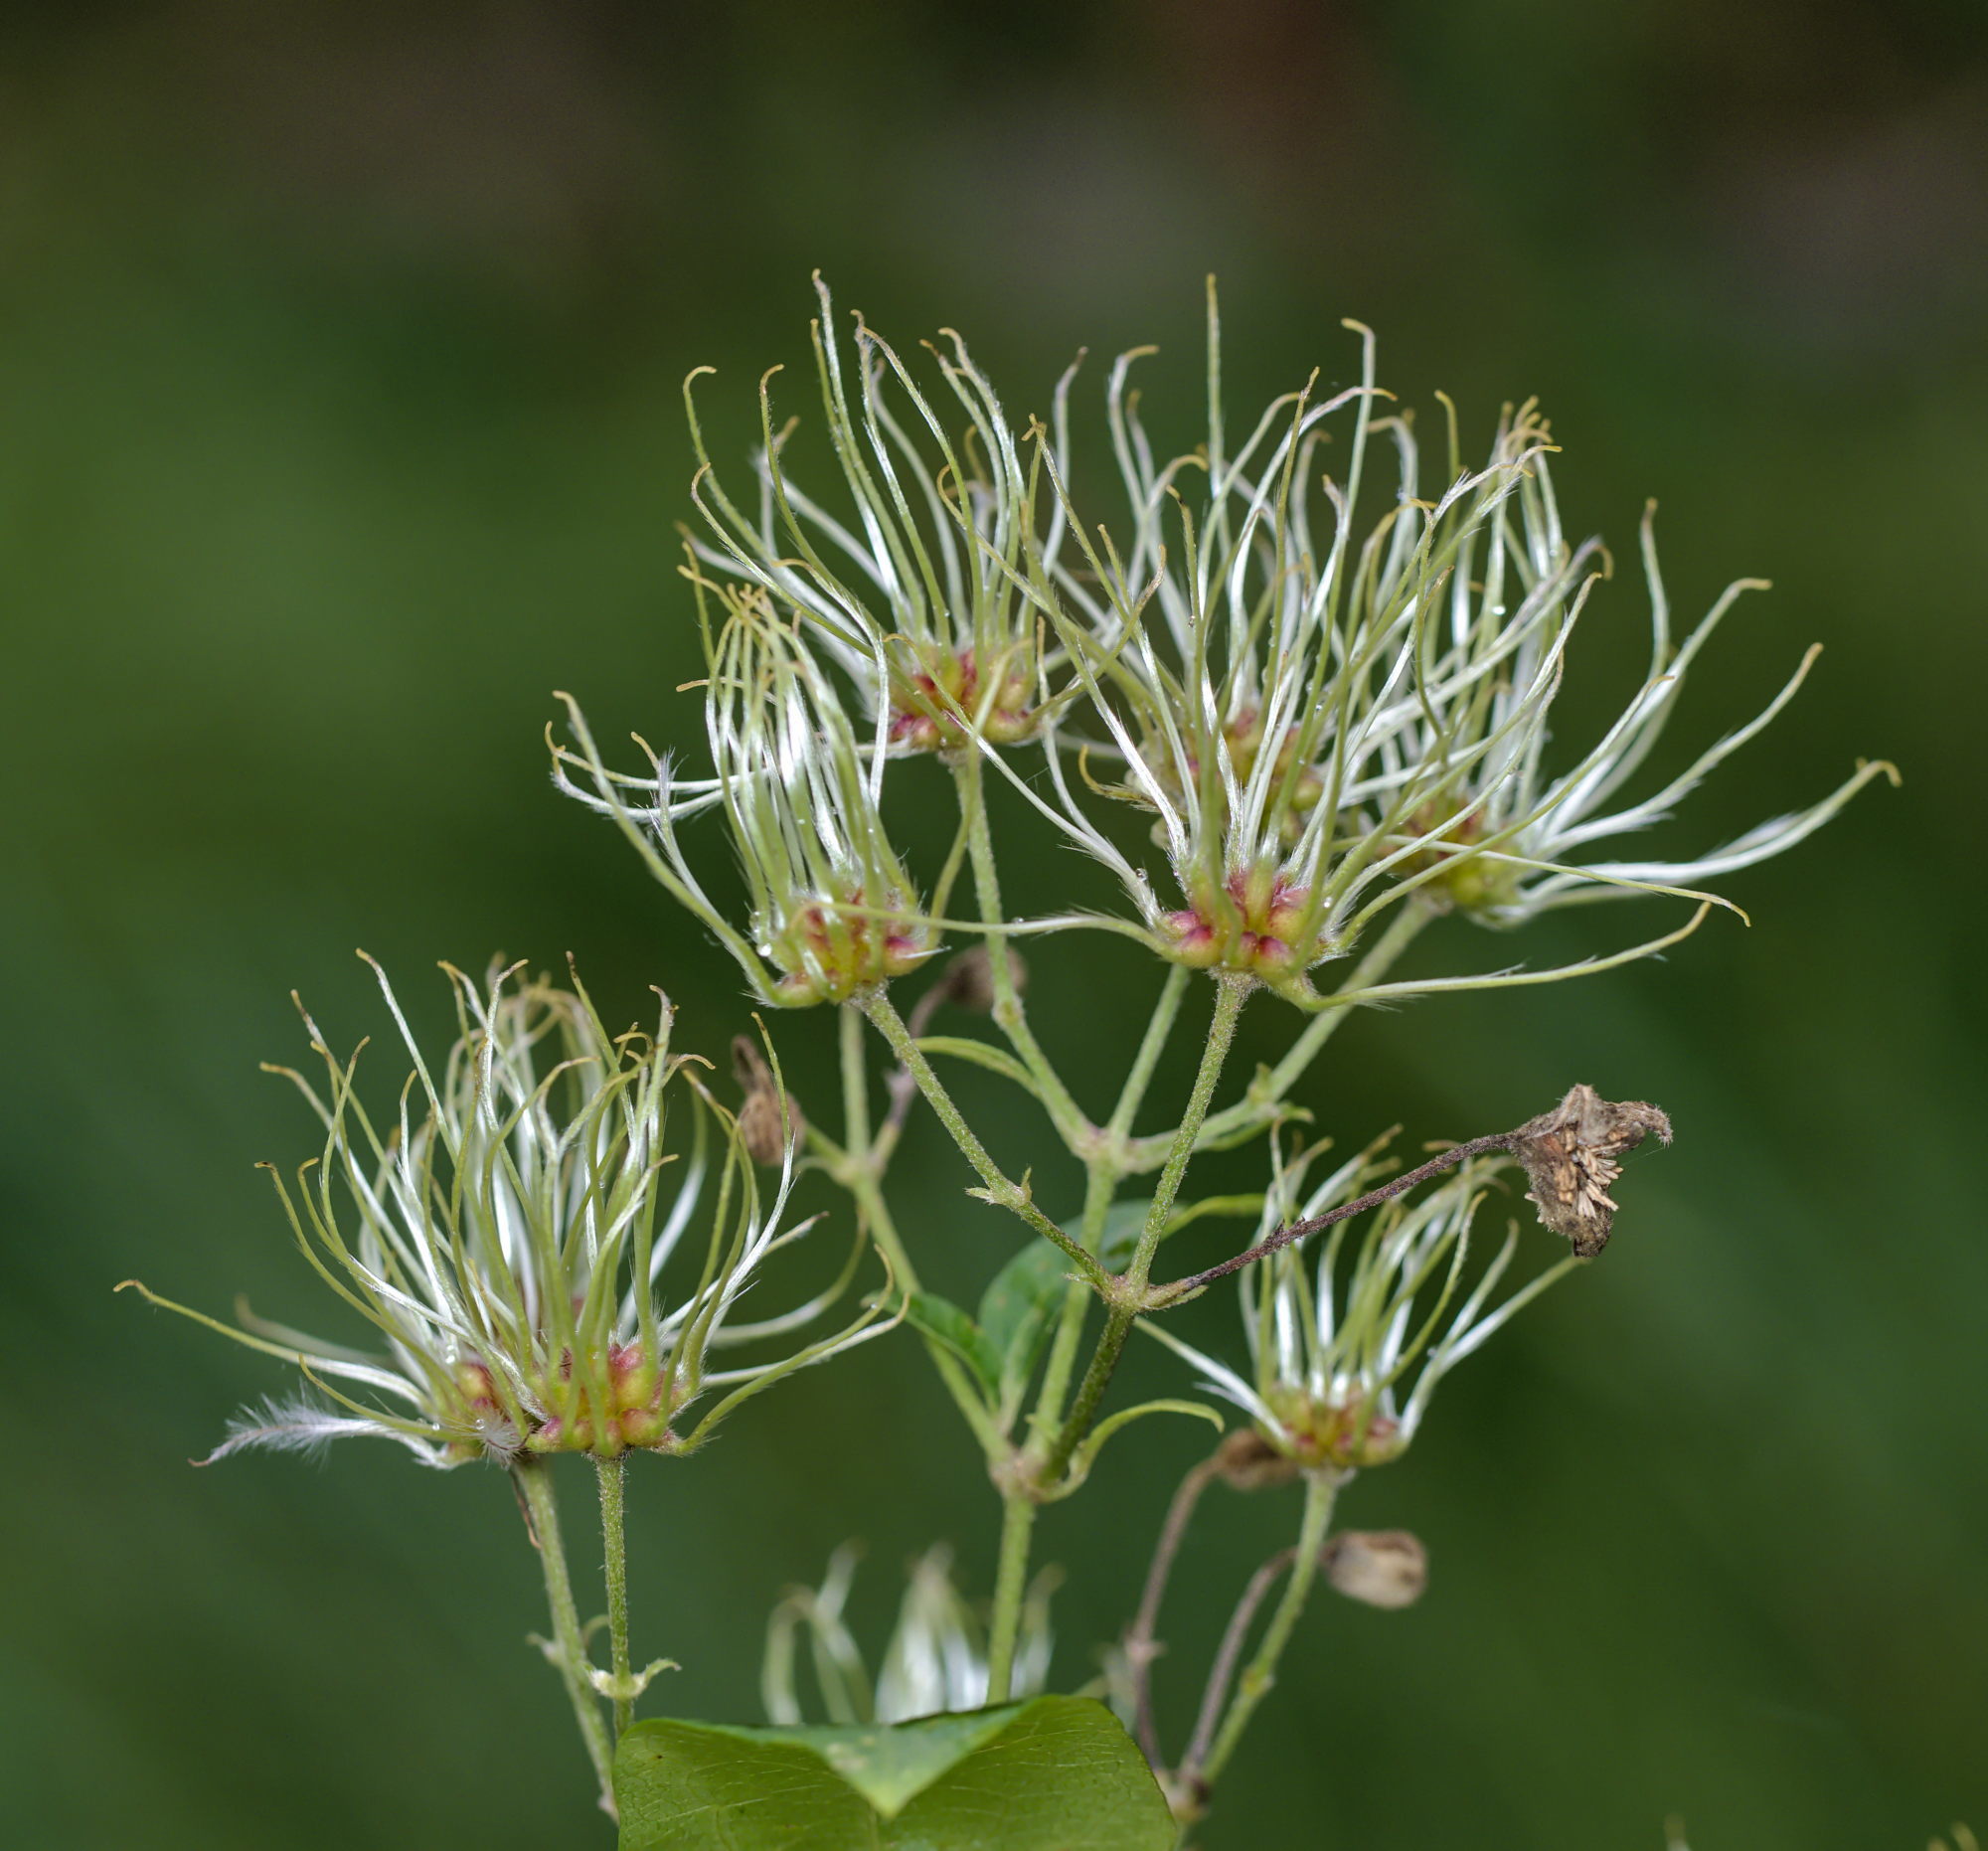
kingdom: Plantae
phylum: Tracheophyta
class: Magnoliopsida
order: Ranunculales
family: Ranunculaceae
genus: Clematis
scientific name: Clematis vitalba
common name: Evergreen clematis
